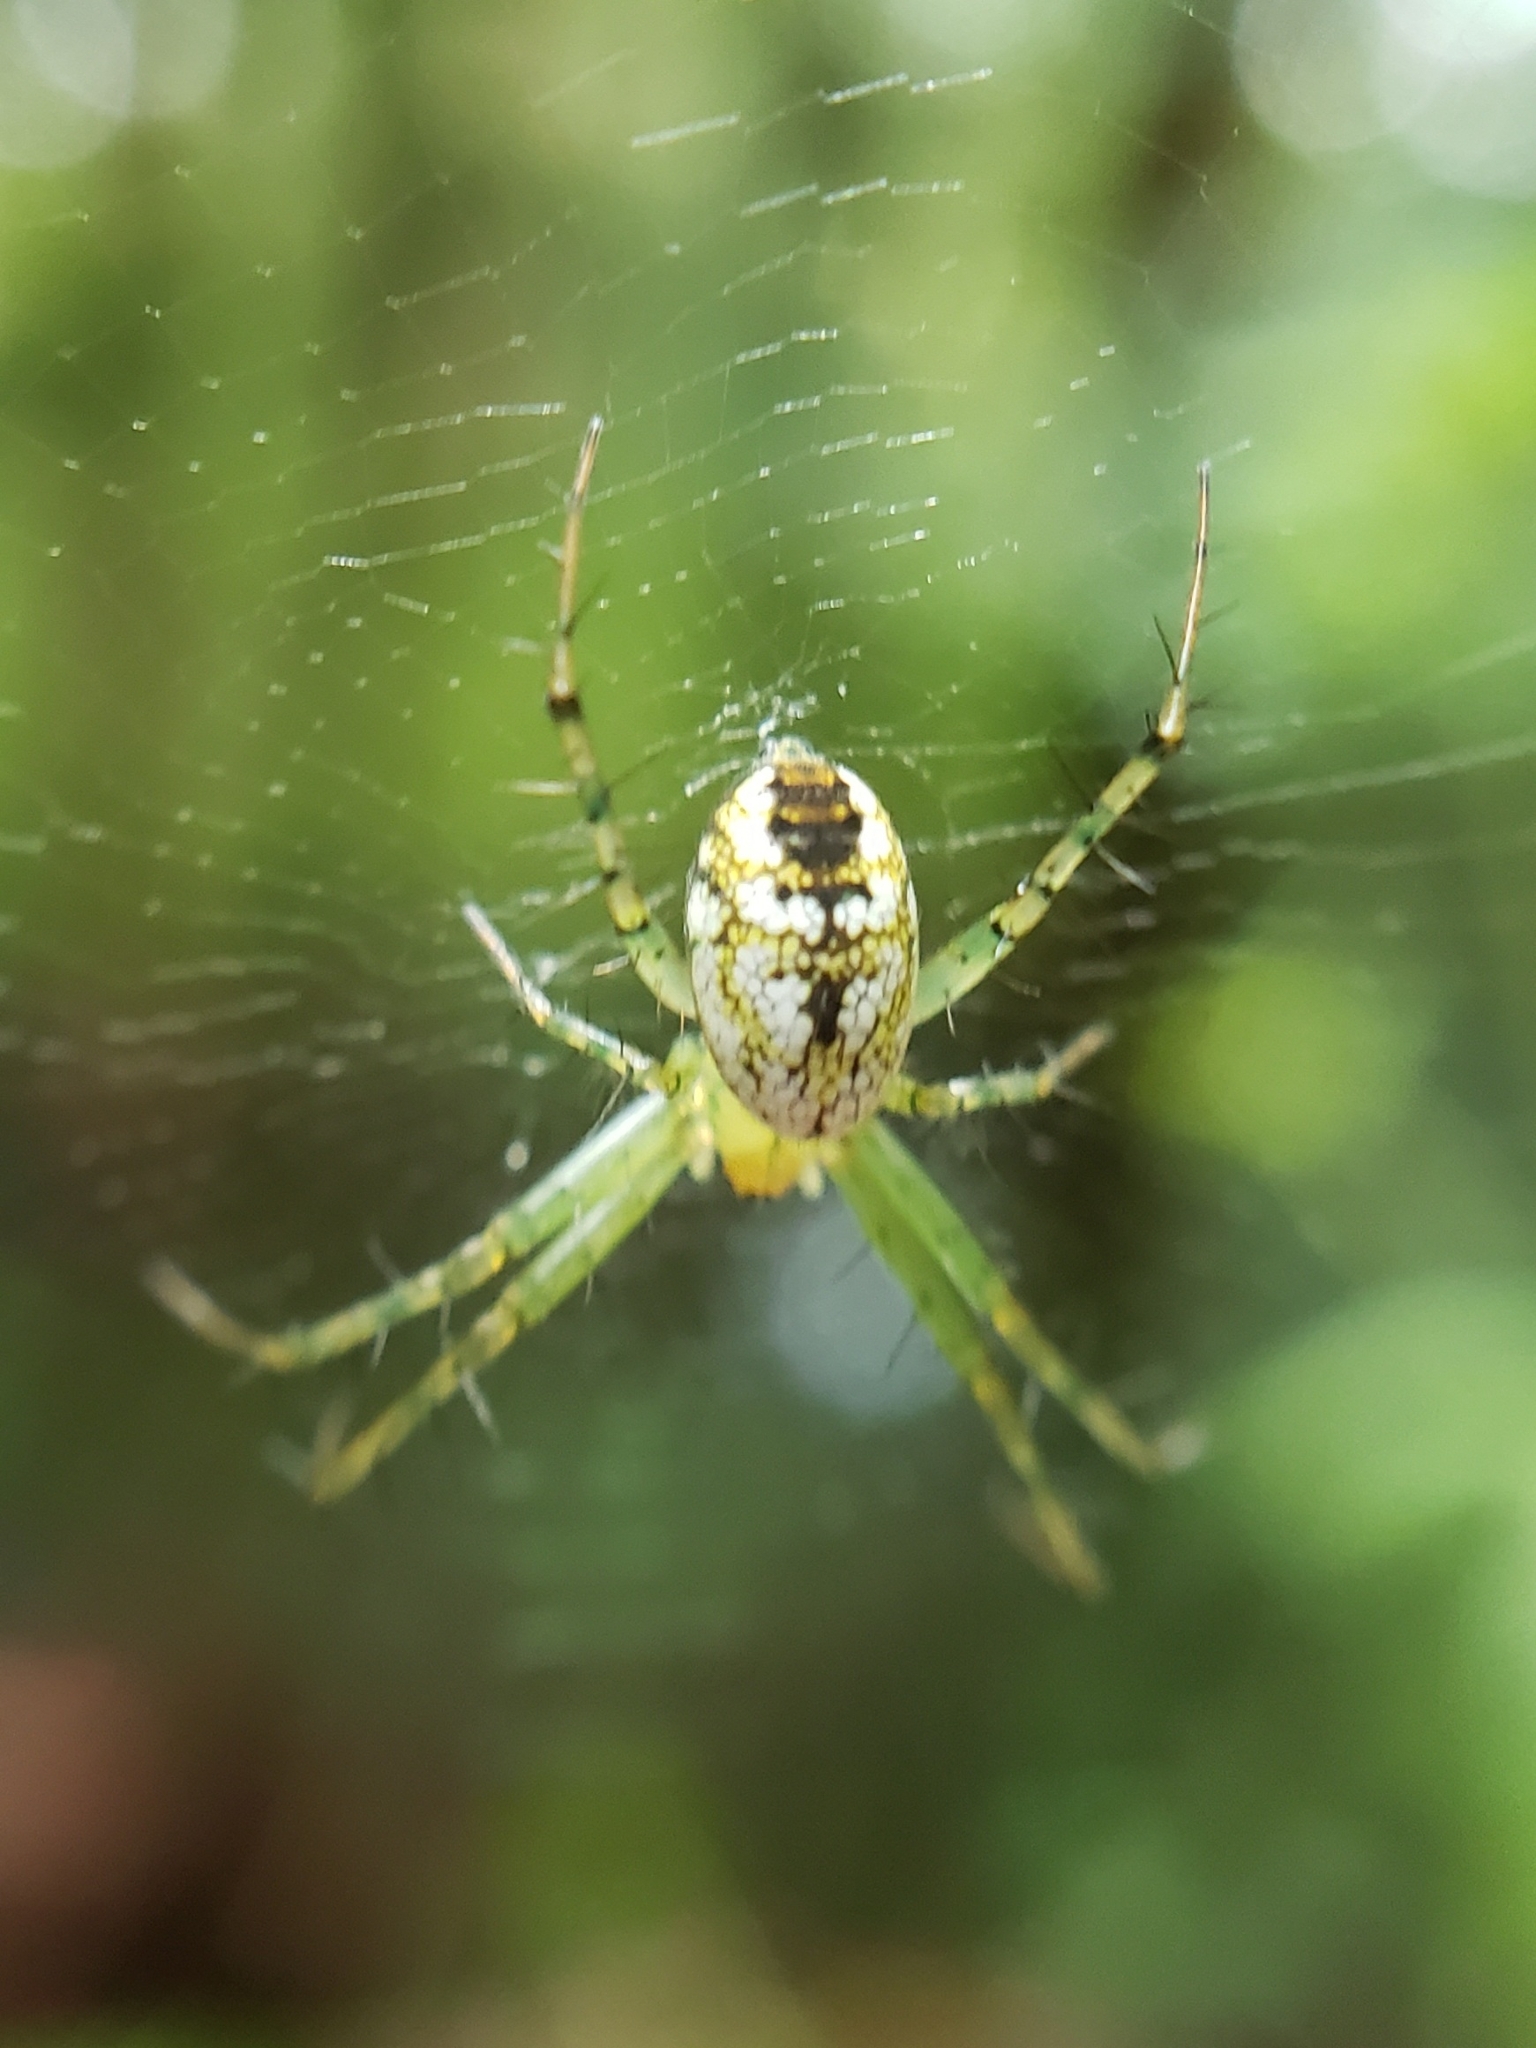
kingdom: Animalia
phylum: Arthropoda
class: Arachnida
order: Araneae
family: Araneidae
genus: Mangora
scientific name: Mangora spiculata
